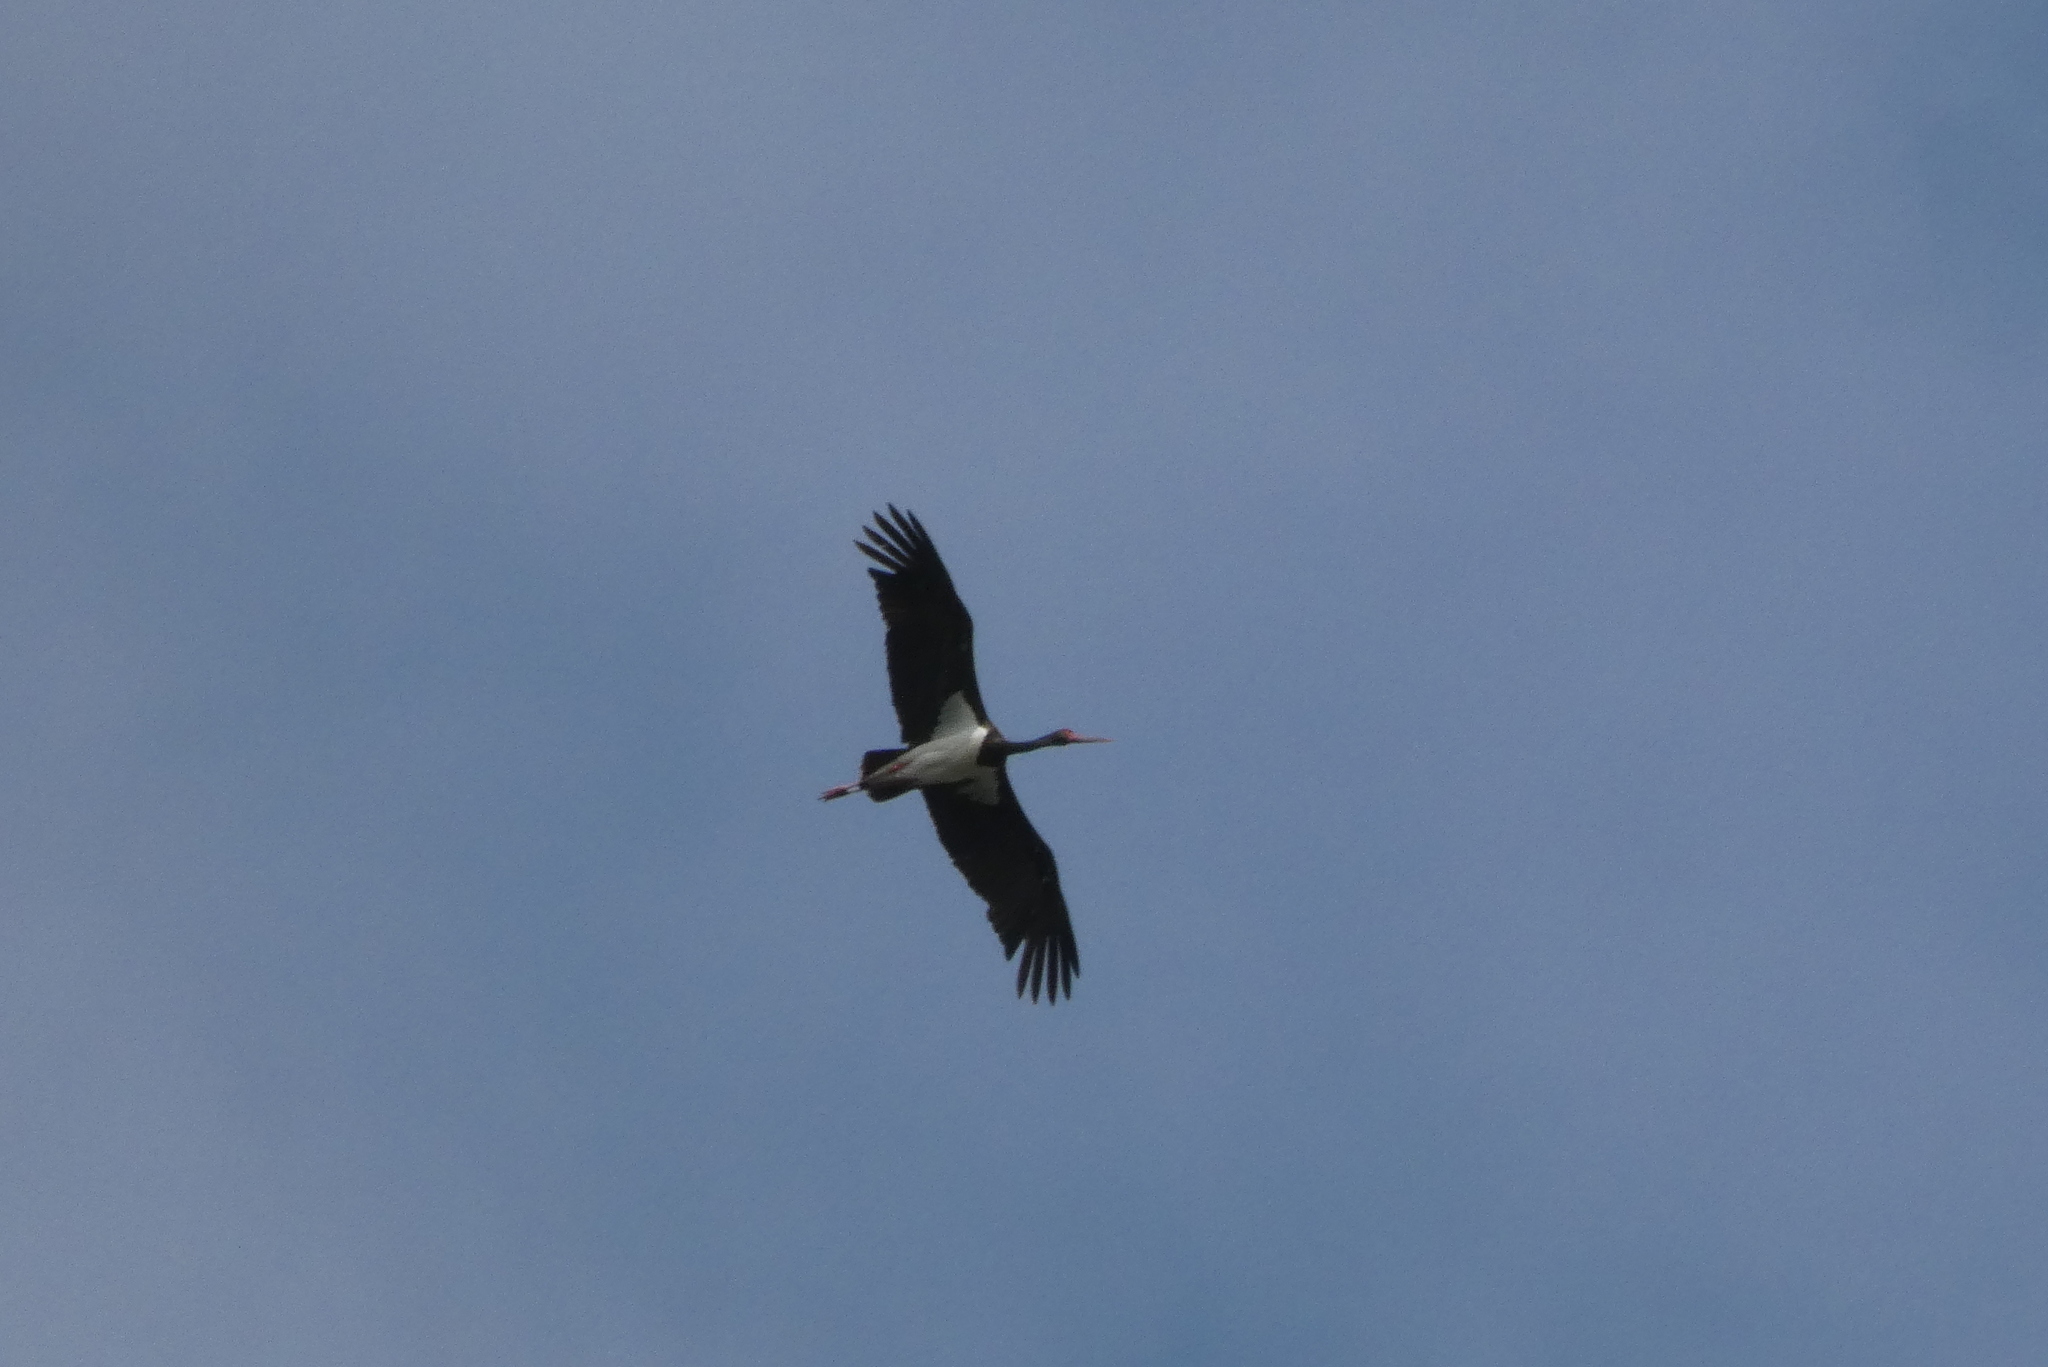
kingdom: Animalia
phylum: Chordata
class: Aves
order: Ciconiiformes
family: Ciconiidae
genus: Ciconia
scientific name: Ciconia nigra
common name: Black stork
